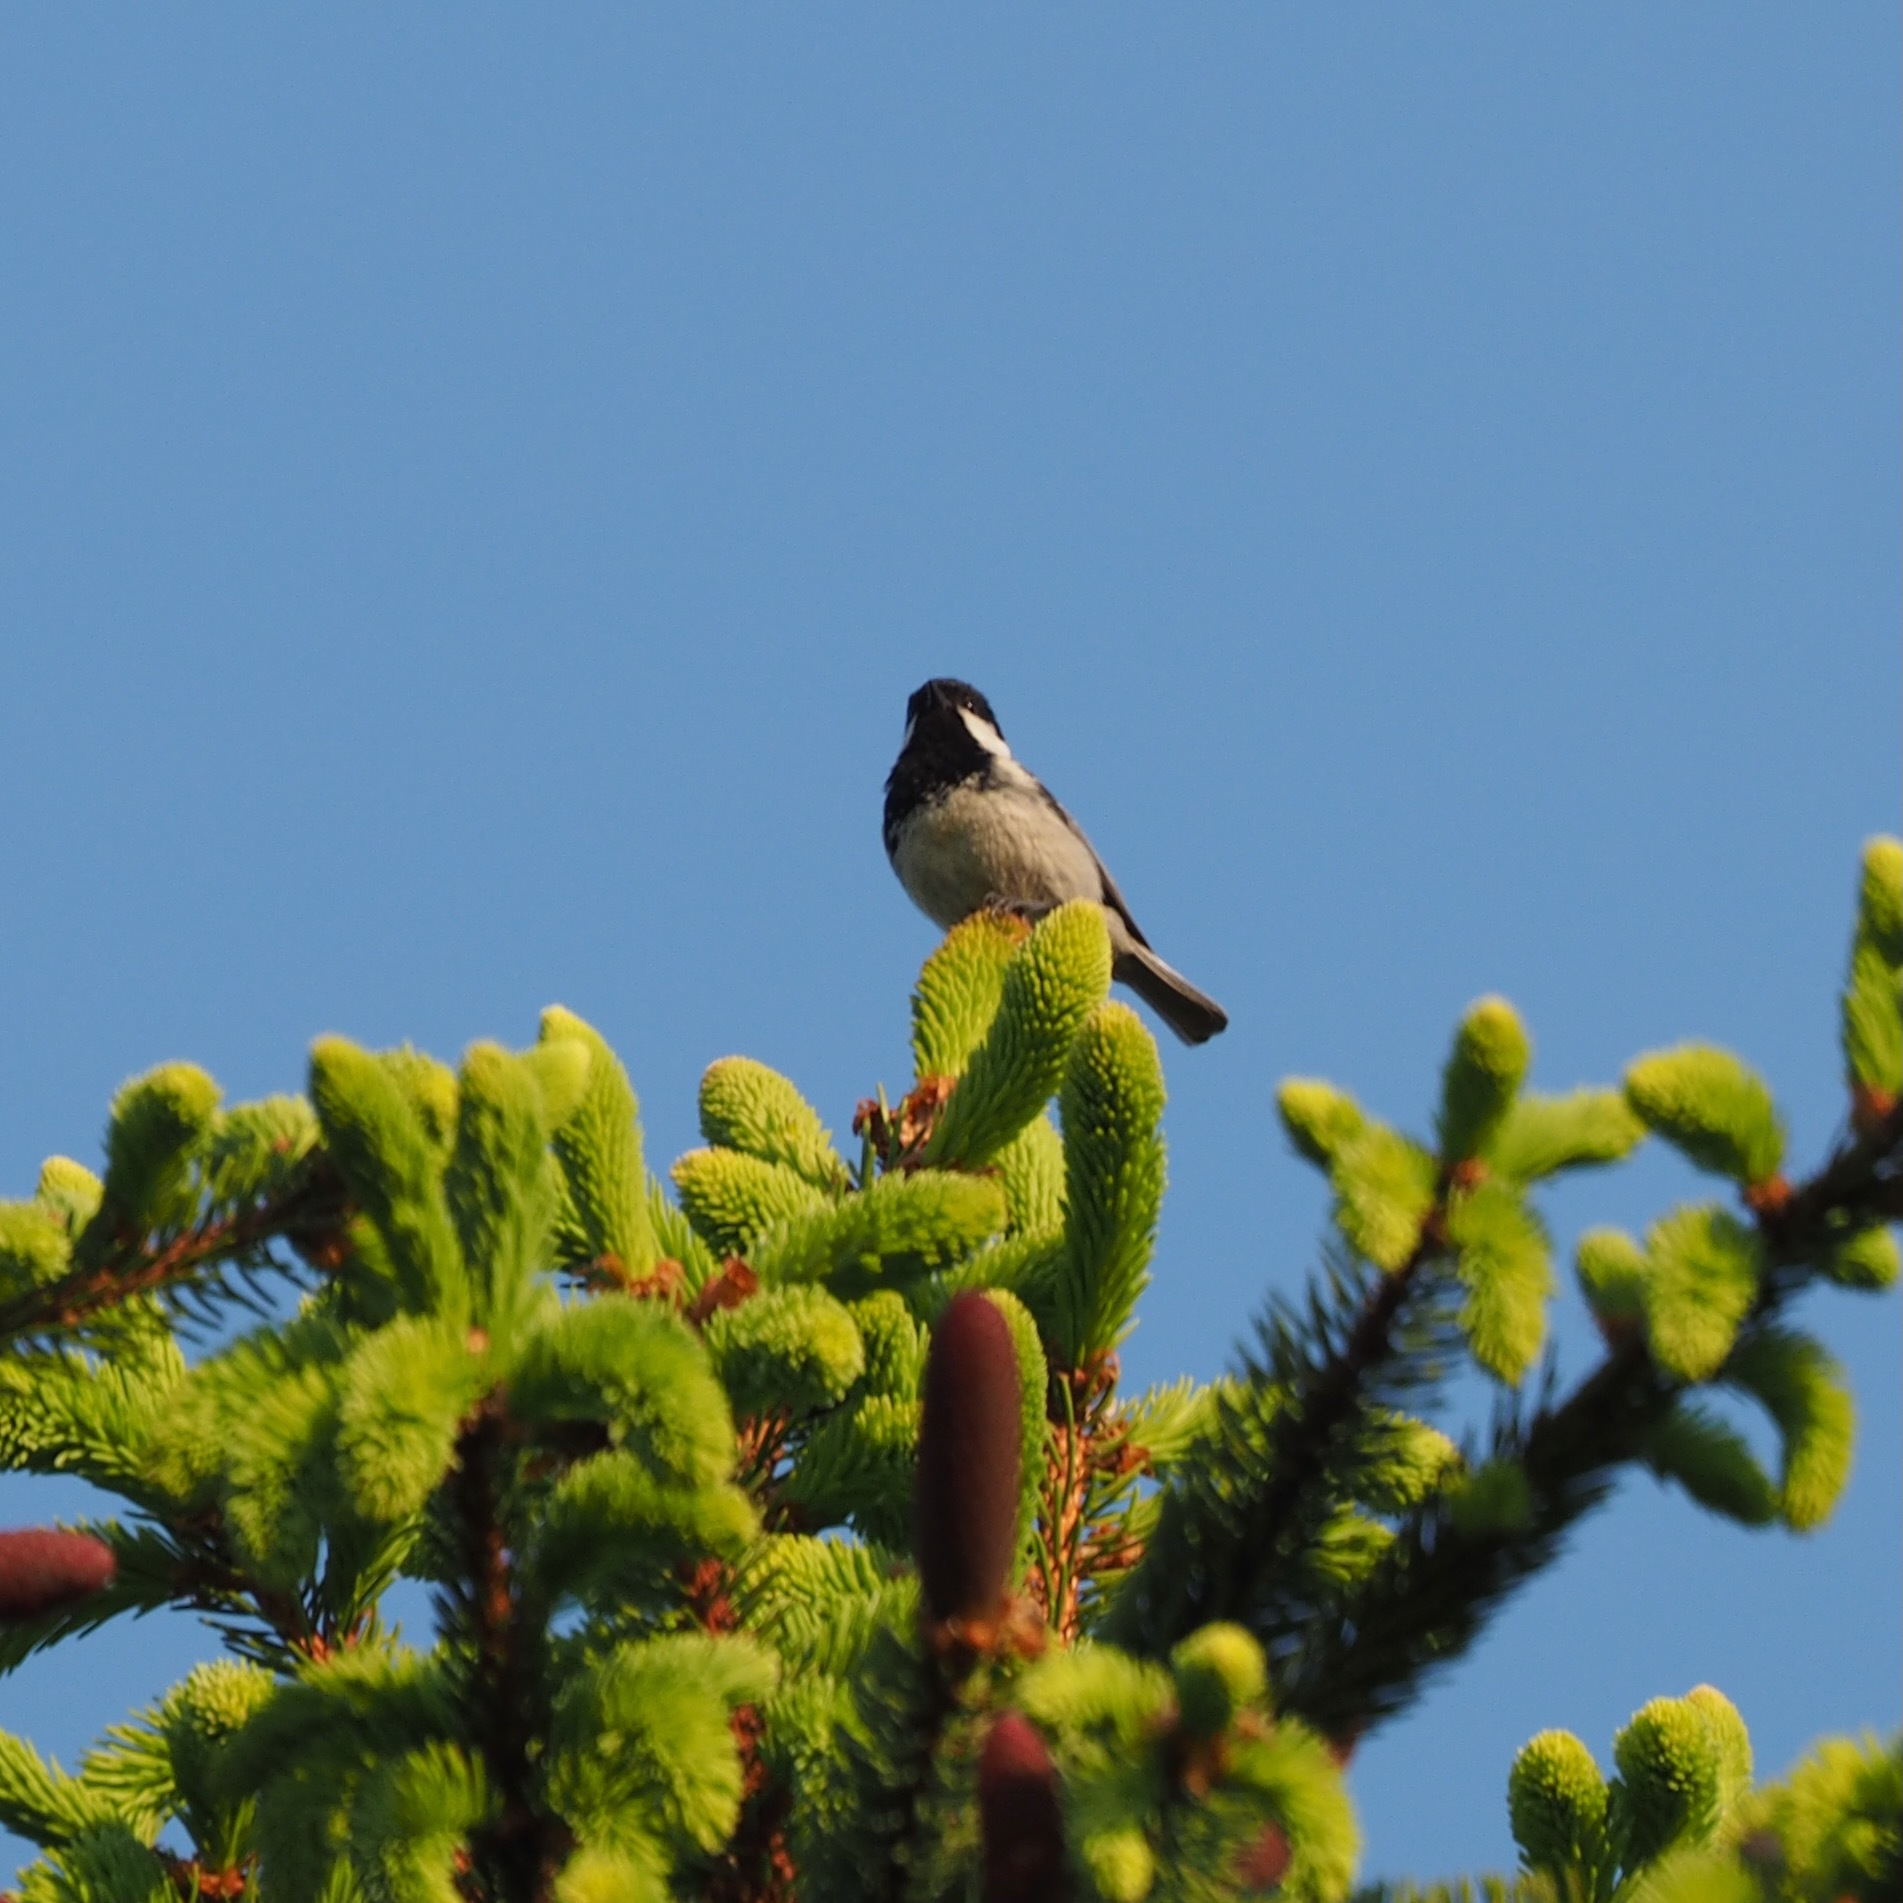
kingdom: Animalia
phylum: Chordata
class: Aves
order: Passeriformes
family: Paridae
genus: Periparus
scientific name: Periparus ater
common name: Coal tit
